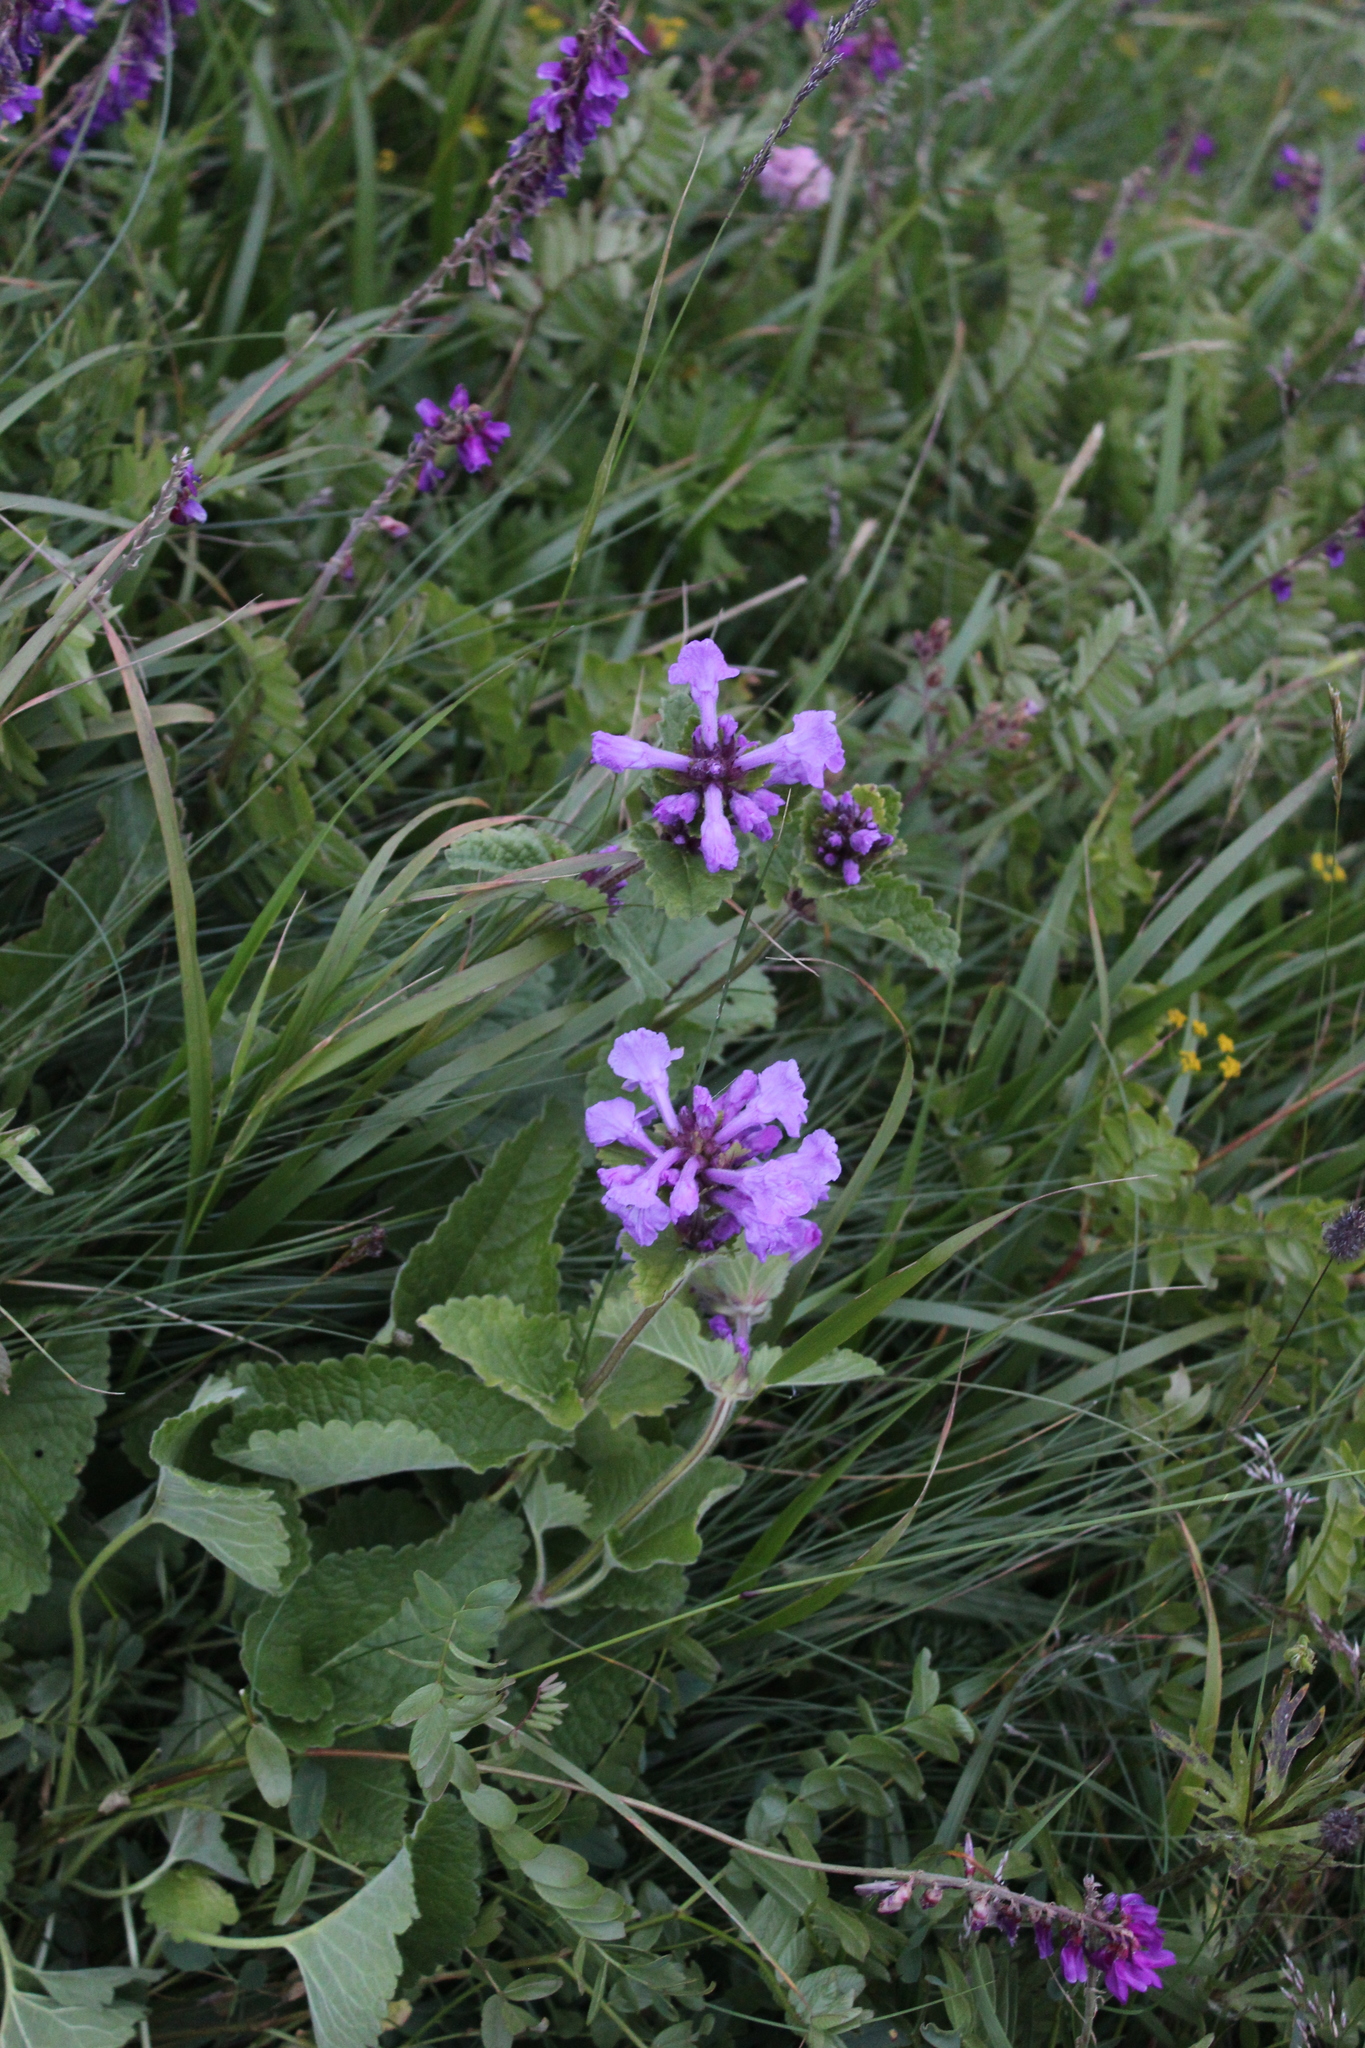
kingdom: Plantae
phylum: Tracheophyta
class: Magnoliopsida
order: Lamiales
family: Lamiaceae
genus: Betonica
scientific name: Betonica macrantha
